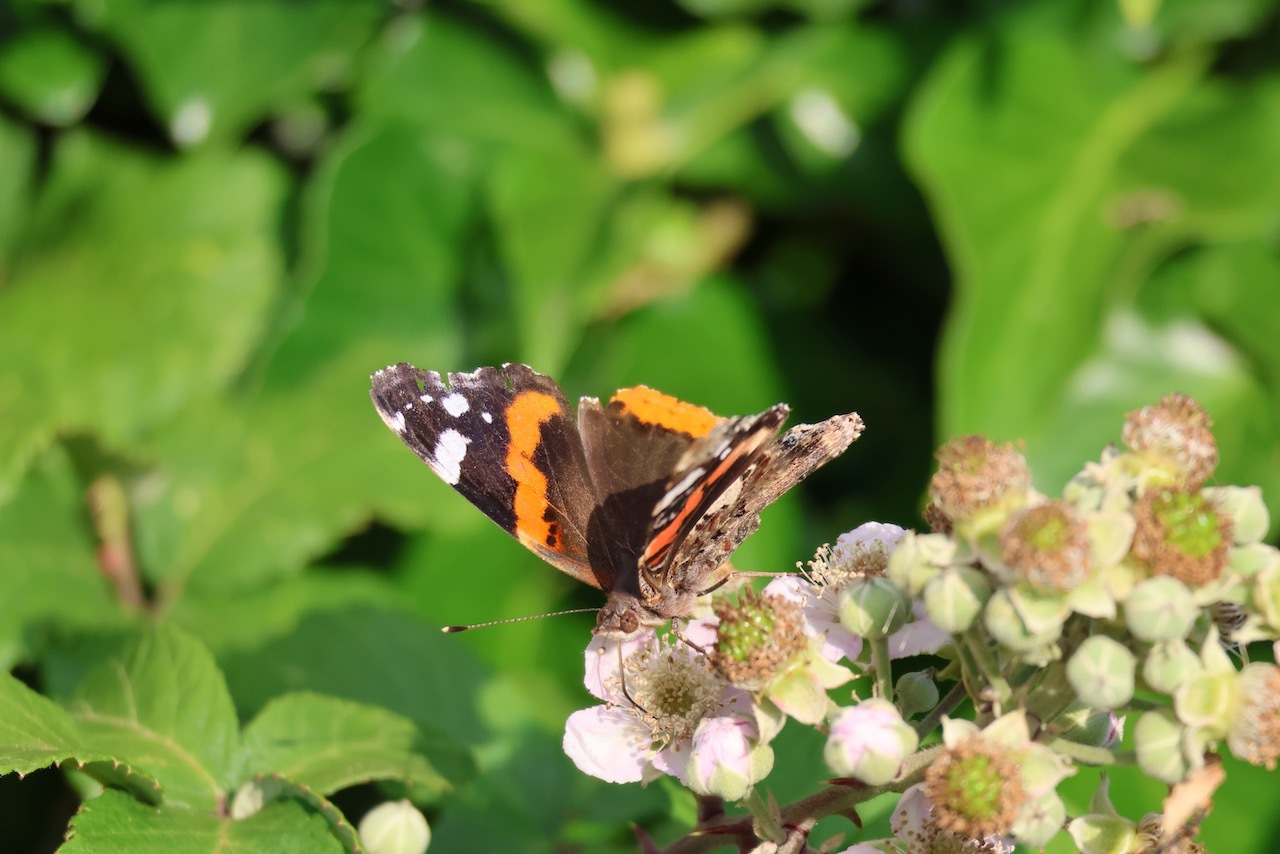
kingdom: Animalia
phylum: Arthropoda
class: Insecta
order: Lepidoptera
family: Nymphalidae
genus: Vanessa
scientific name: Vanessa atalanta
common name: Red admiral
